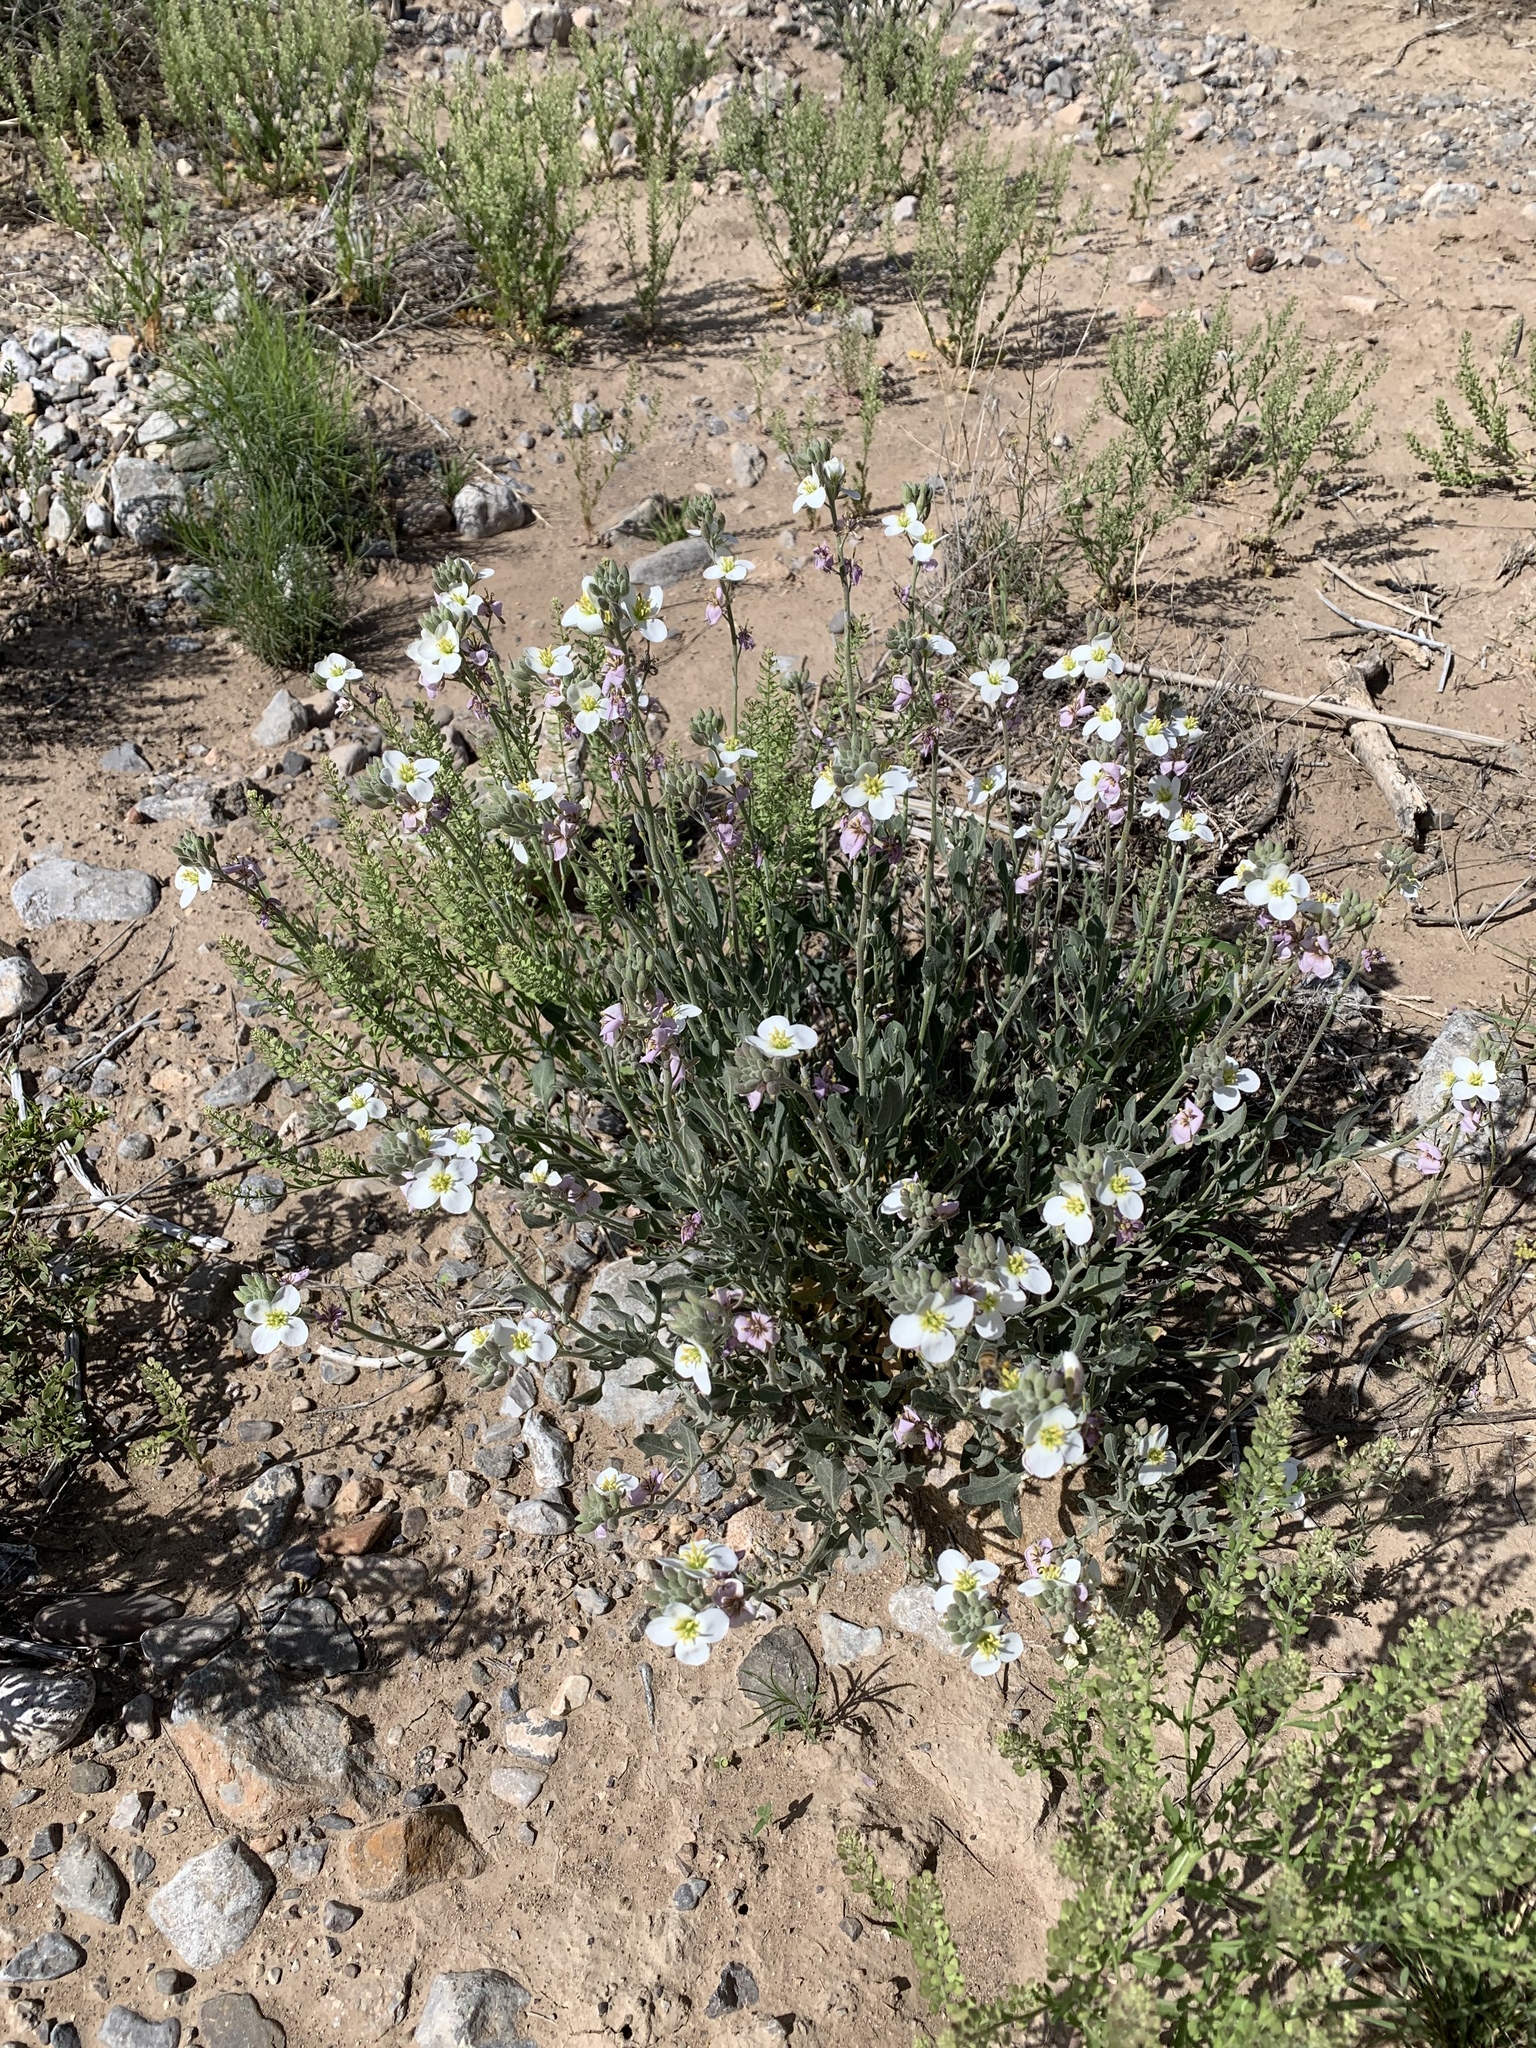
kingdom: Plantae
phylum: Tracheophyta
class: Magnoliopsida
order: Brassicales
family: Brassicaceae
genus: Nerisyrenia
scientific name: Nerisyrenia camporum
